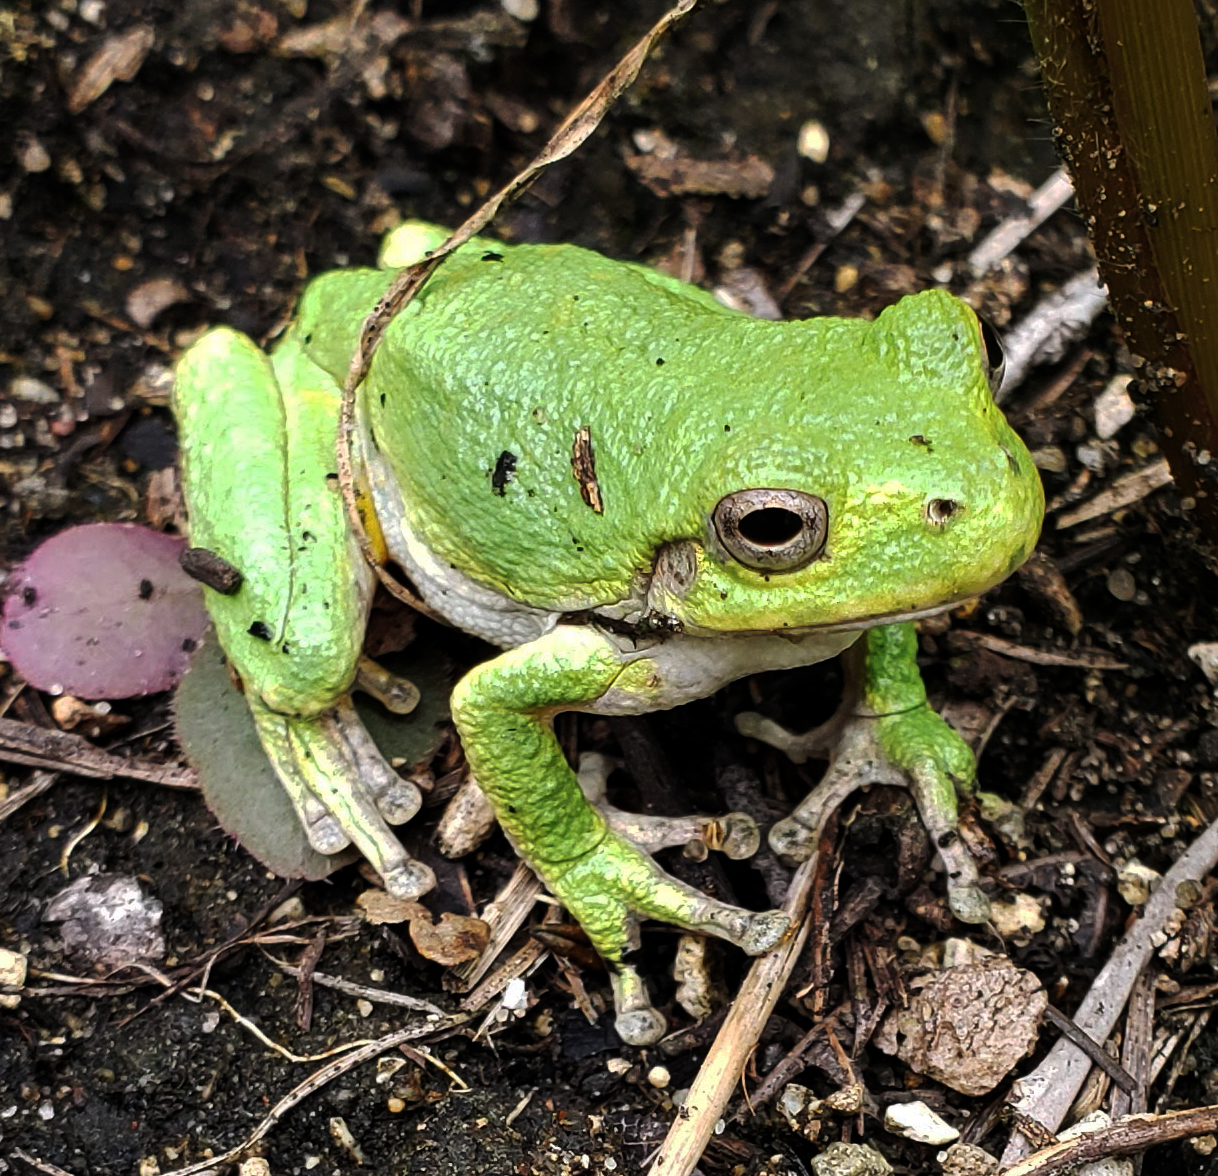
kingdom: Animalia
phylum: Chordata
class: Amphibia
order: Anura
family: Hylidae
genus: Hyla
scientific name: Hyla
